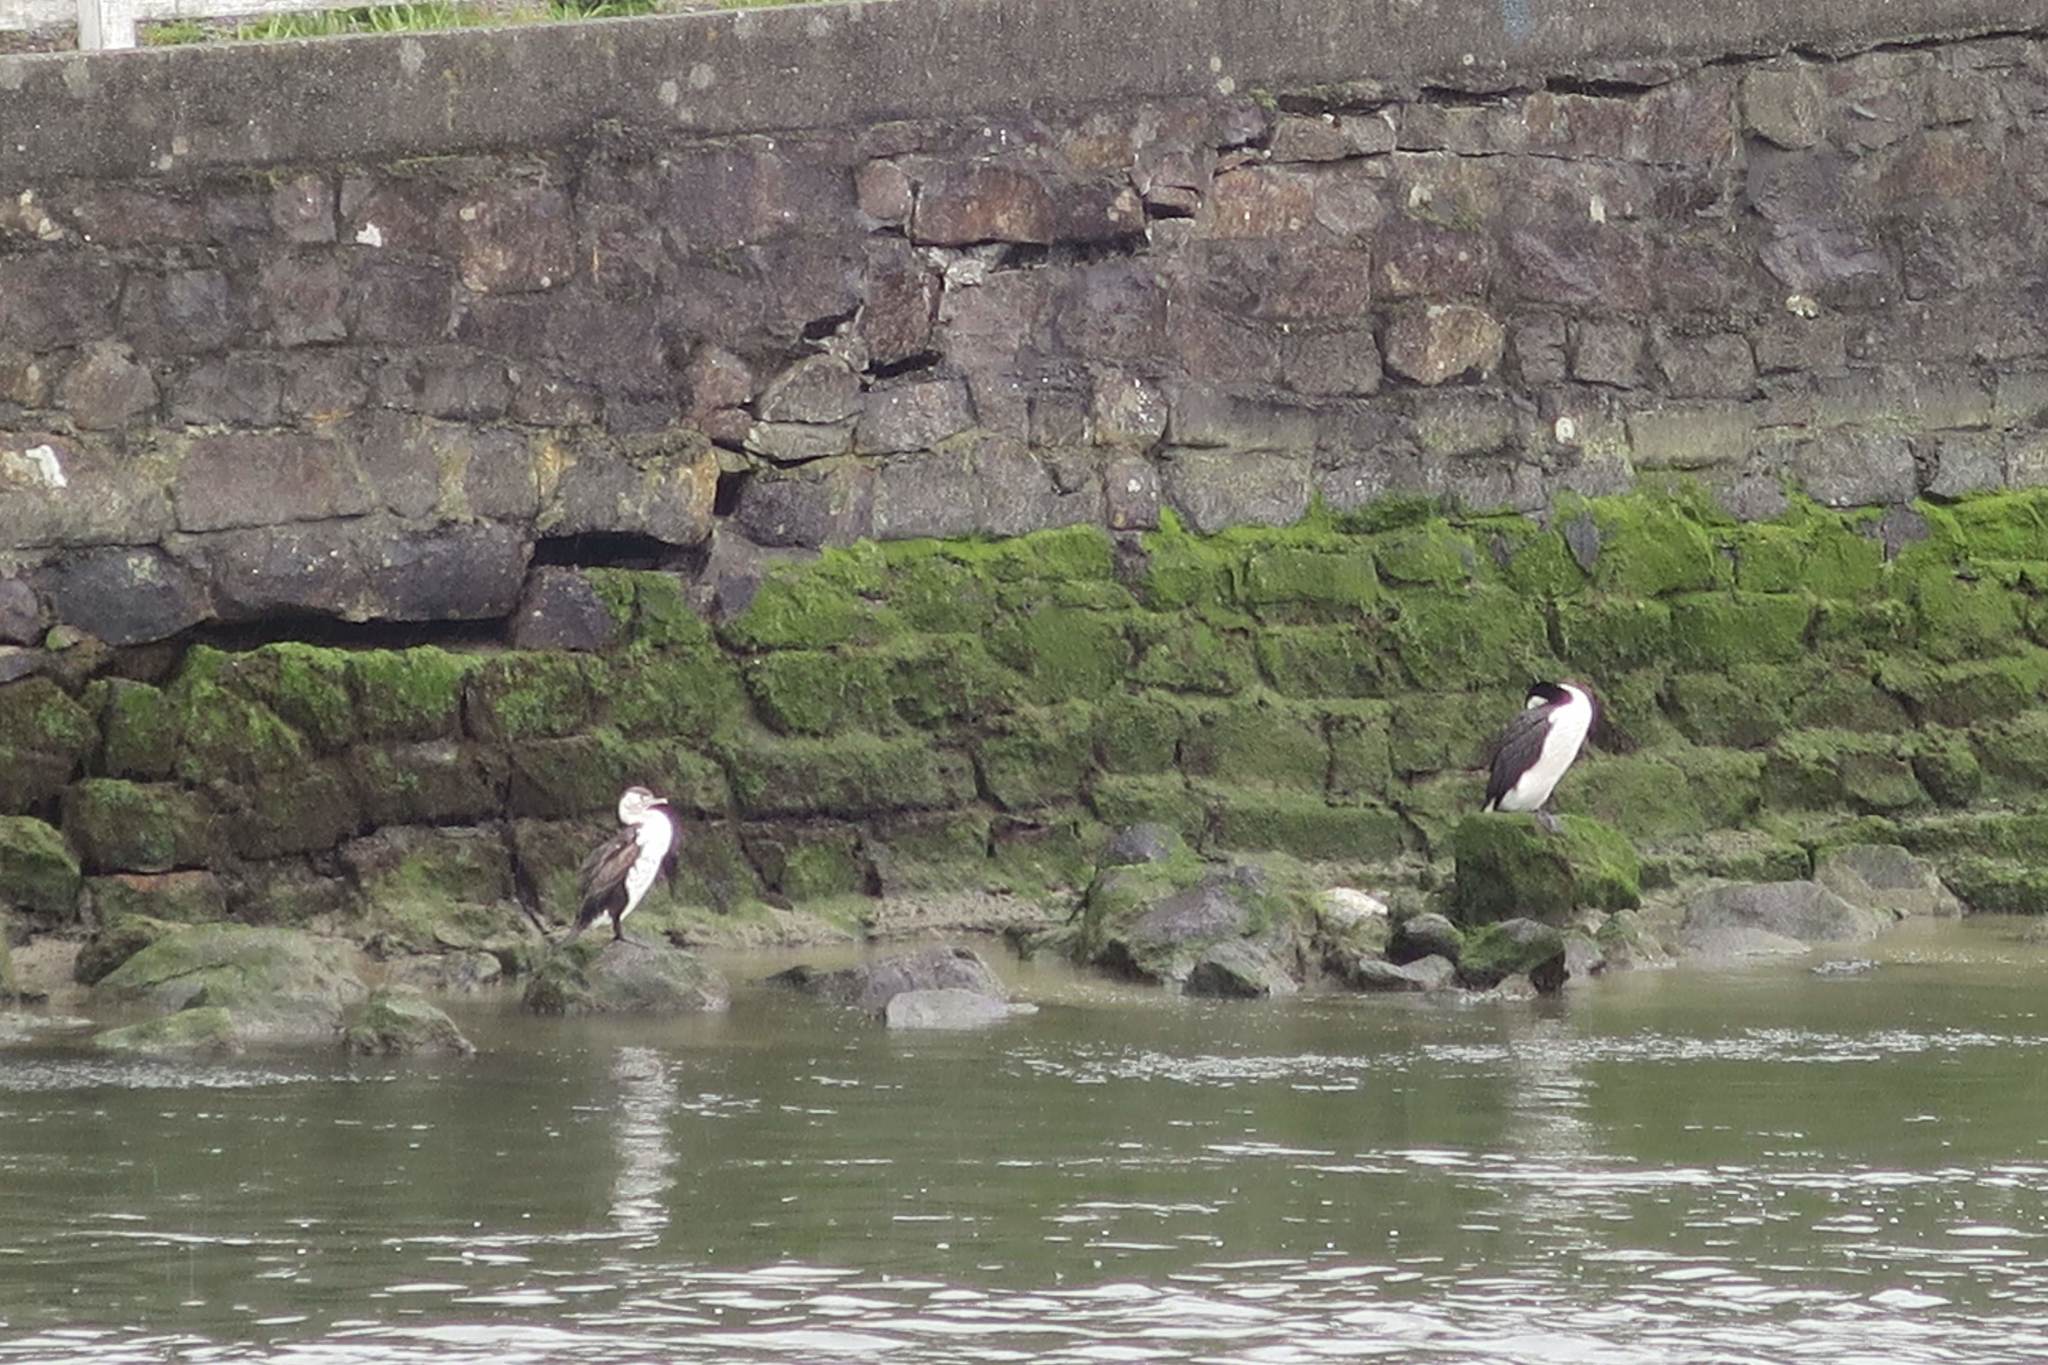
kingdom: Animalia
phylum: Chordata
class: Aves
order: Suliformes
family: Phalacrocoracidae
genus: Phalacrocorax
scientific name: Phalacrocorax varius
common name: Pied cormorant
